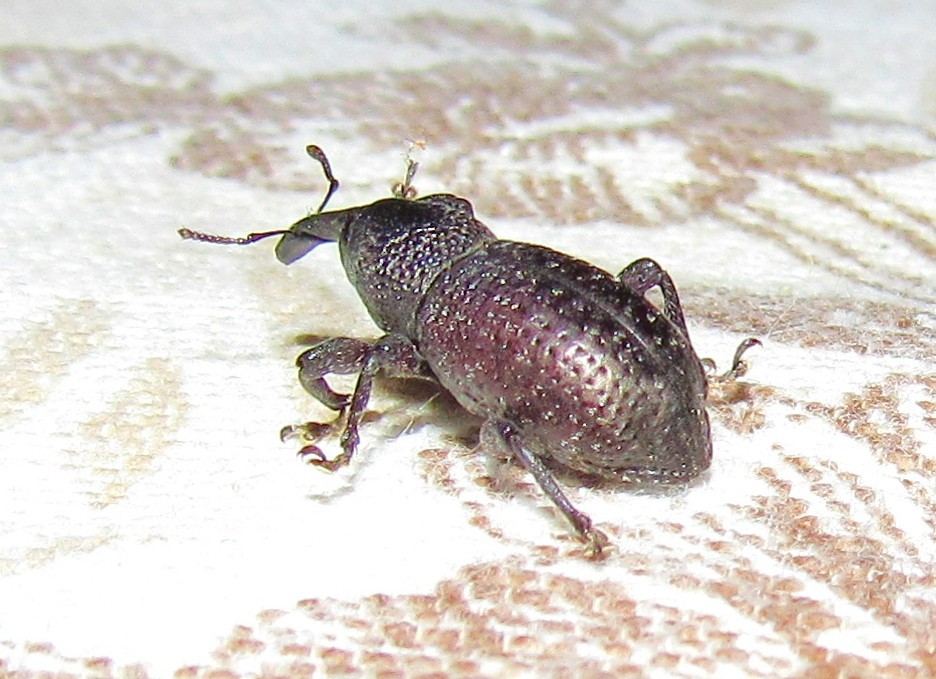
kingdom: Animalia
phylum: Arthropoda
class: Insecta
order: Coleoptera
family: Curculionidae
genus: Heilipus
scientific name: Heilipus taciturnus
